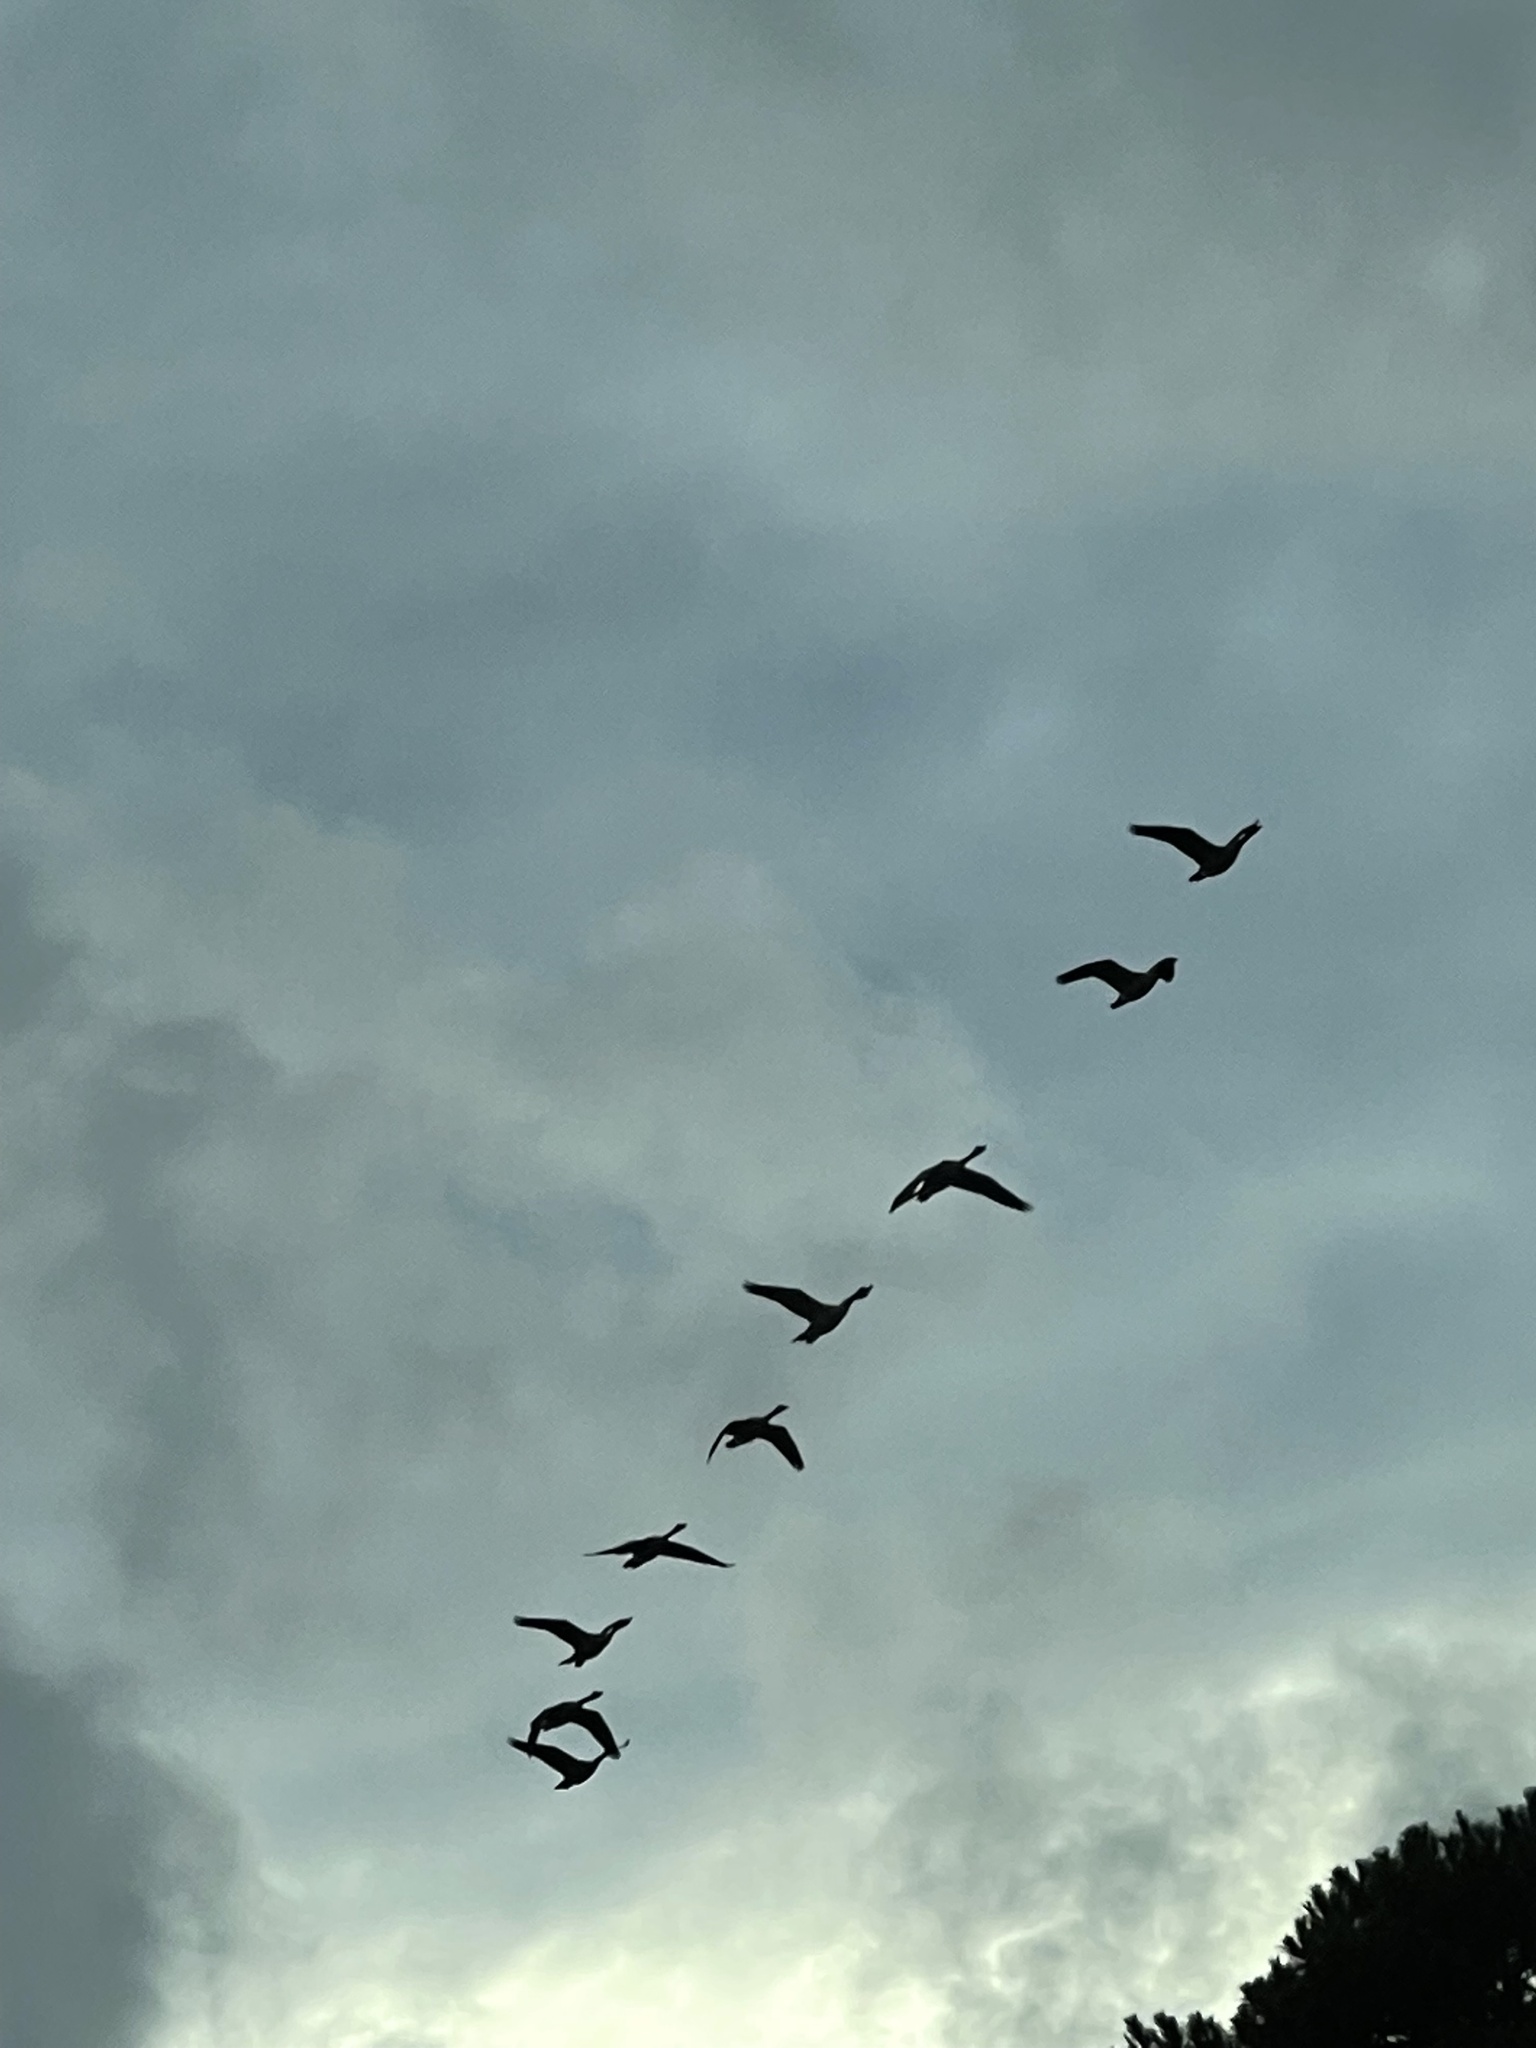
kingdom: Animalia
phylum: Chordata
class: Aves
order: Anseriformes
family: Anatidae
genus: Branta
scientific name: Branta canadensis
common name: Canada goose
